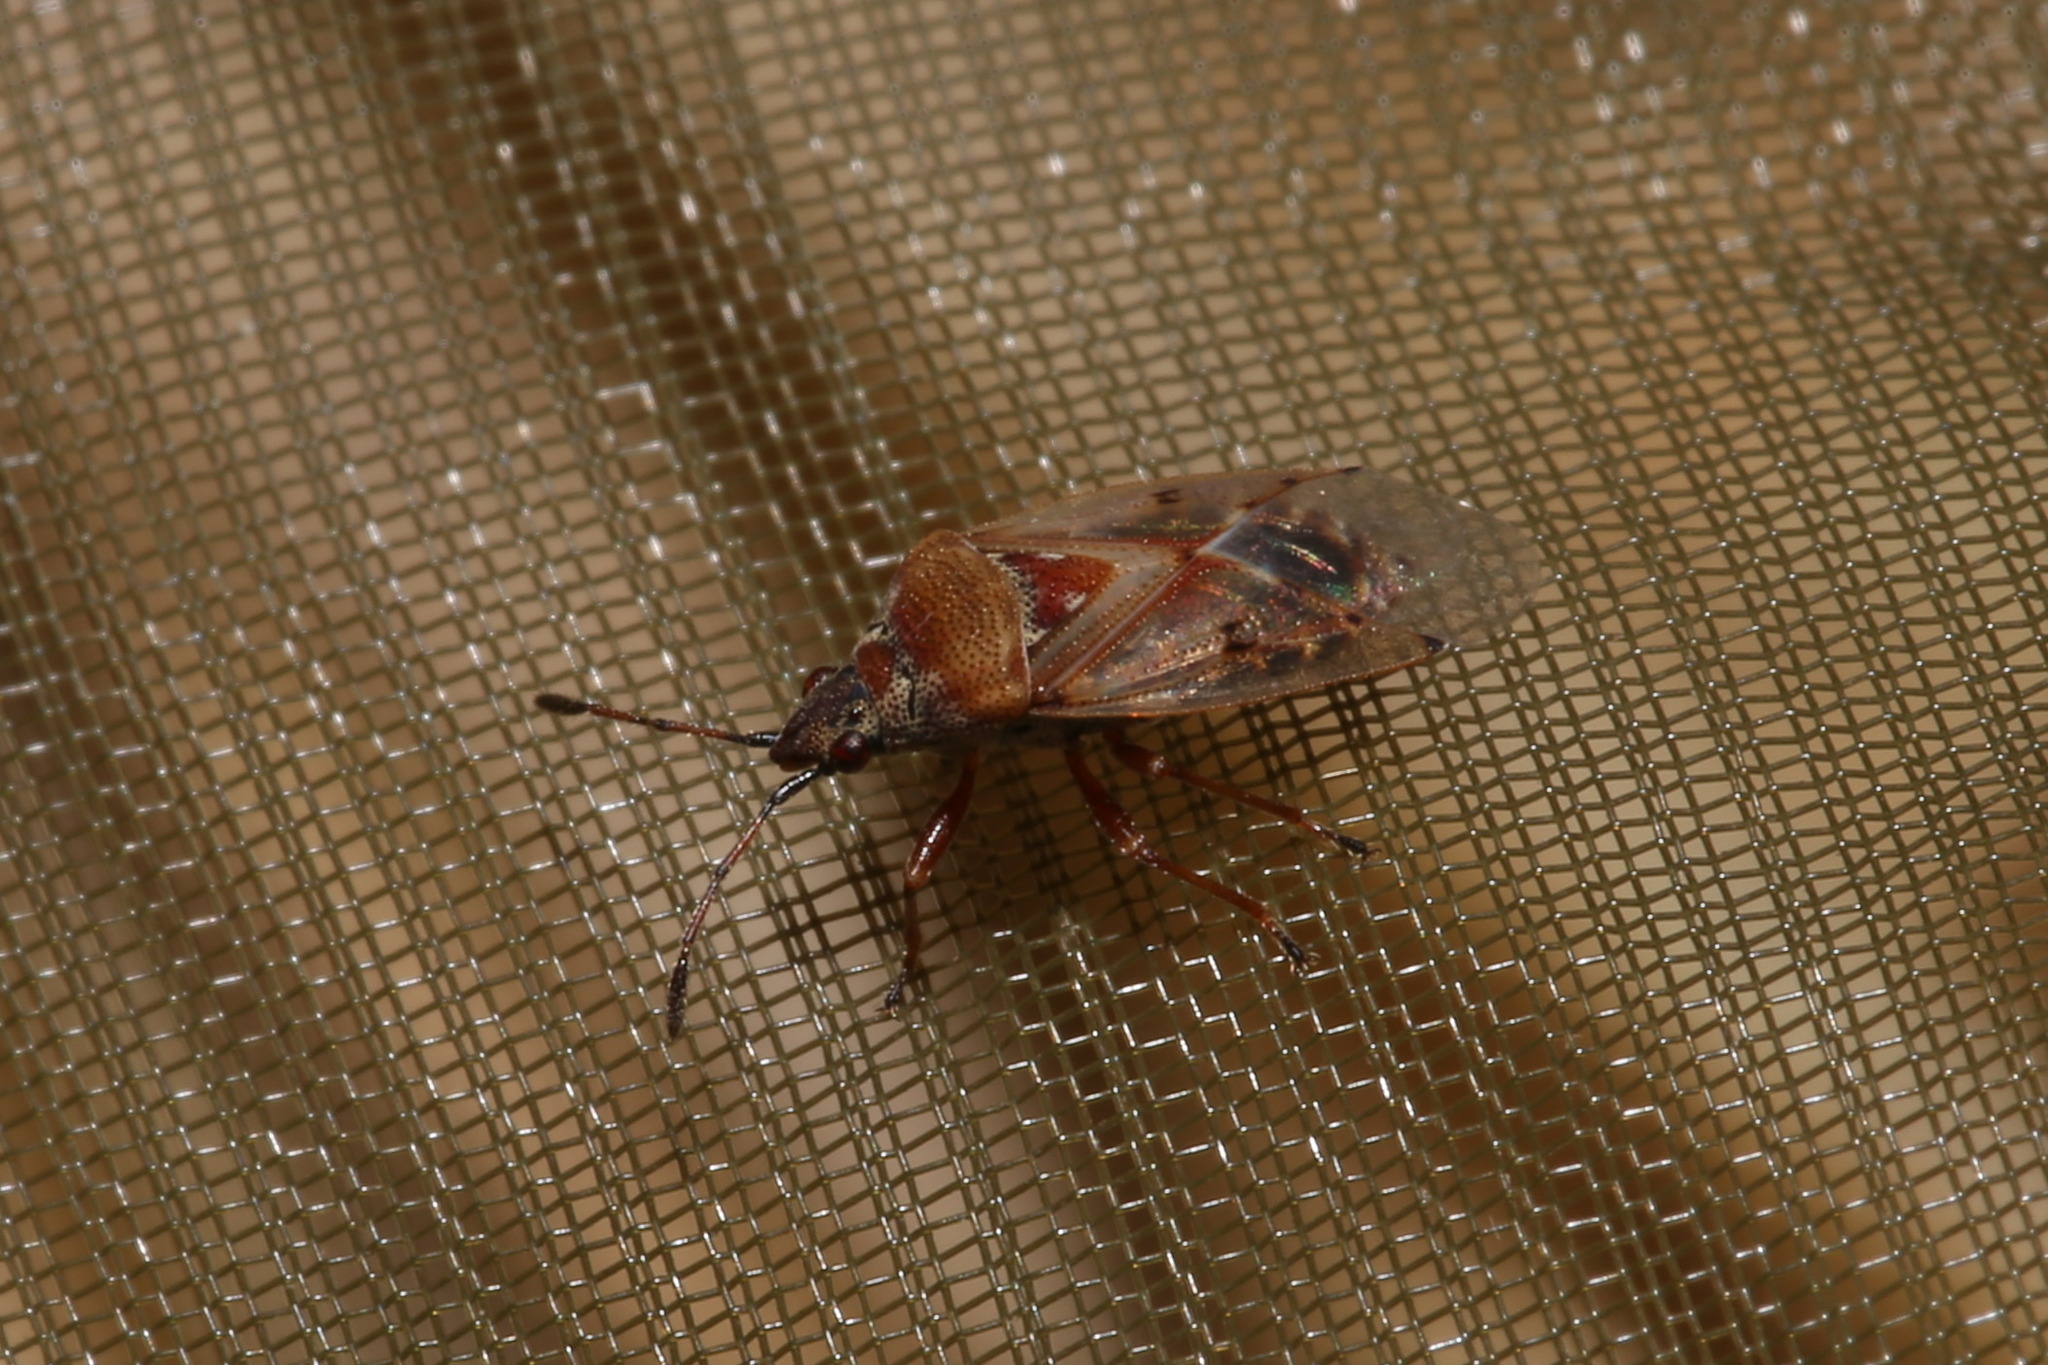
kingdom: Animalia
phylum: Arthropoda
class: Insecta
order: Hemiptera
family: Lygaeidae
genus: Kleidocerys
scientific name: Kleidocerys resedae
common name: Birch catkin bug
